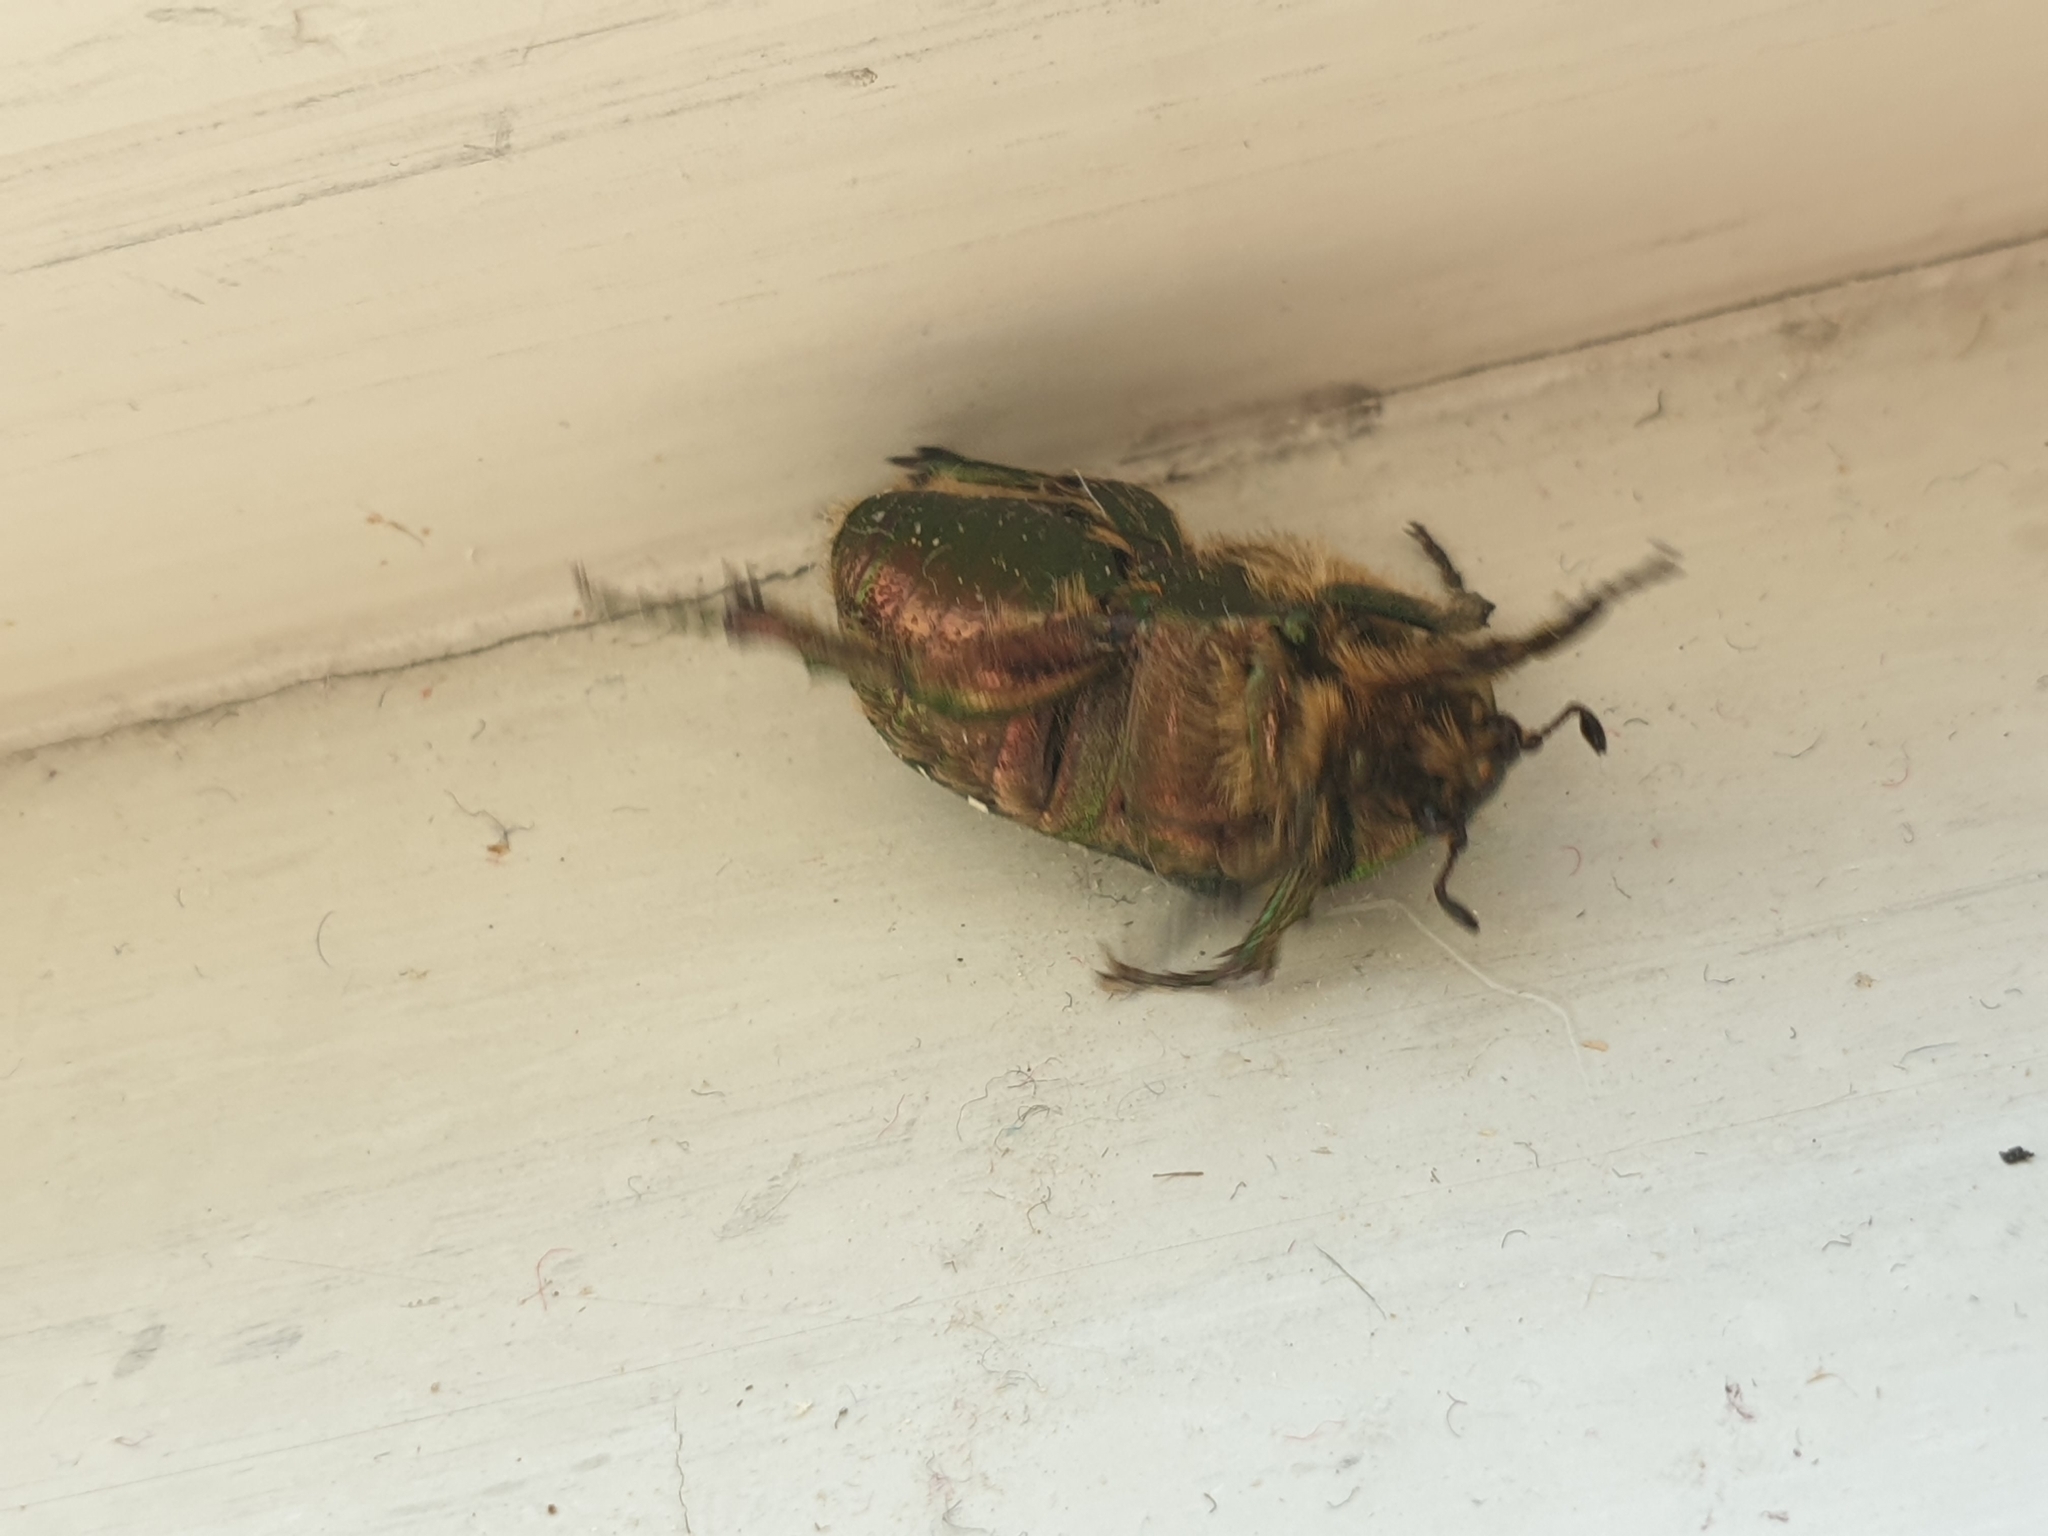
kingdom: Animalia
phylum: Arthropoda
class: Insecta
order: Coleoptera
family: Scarabaeidae
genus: Cetonia
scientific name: Cetonia aurata
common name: Rose chafer
